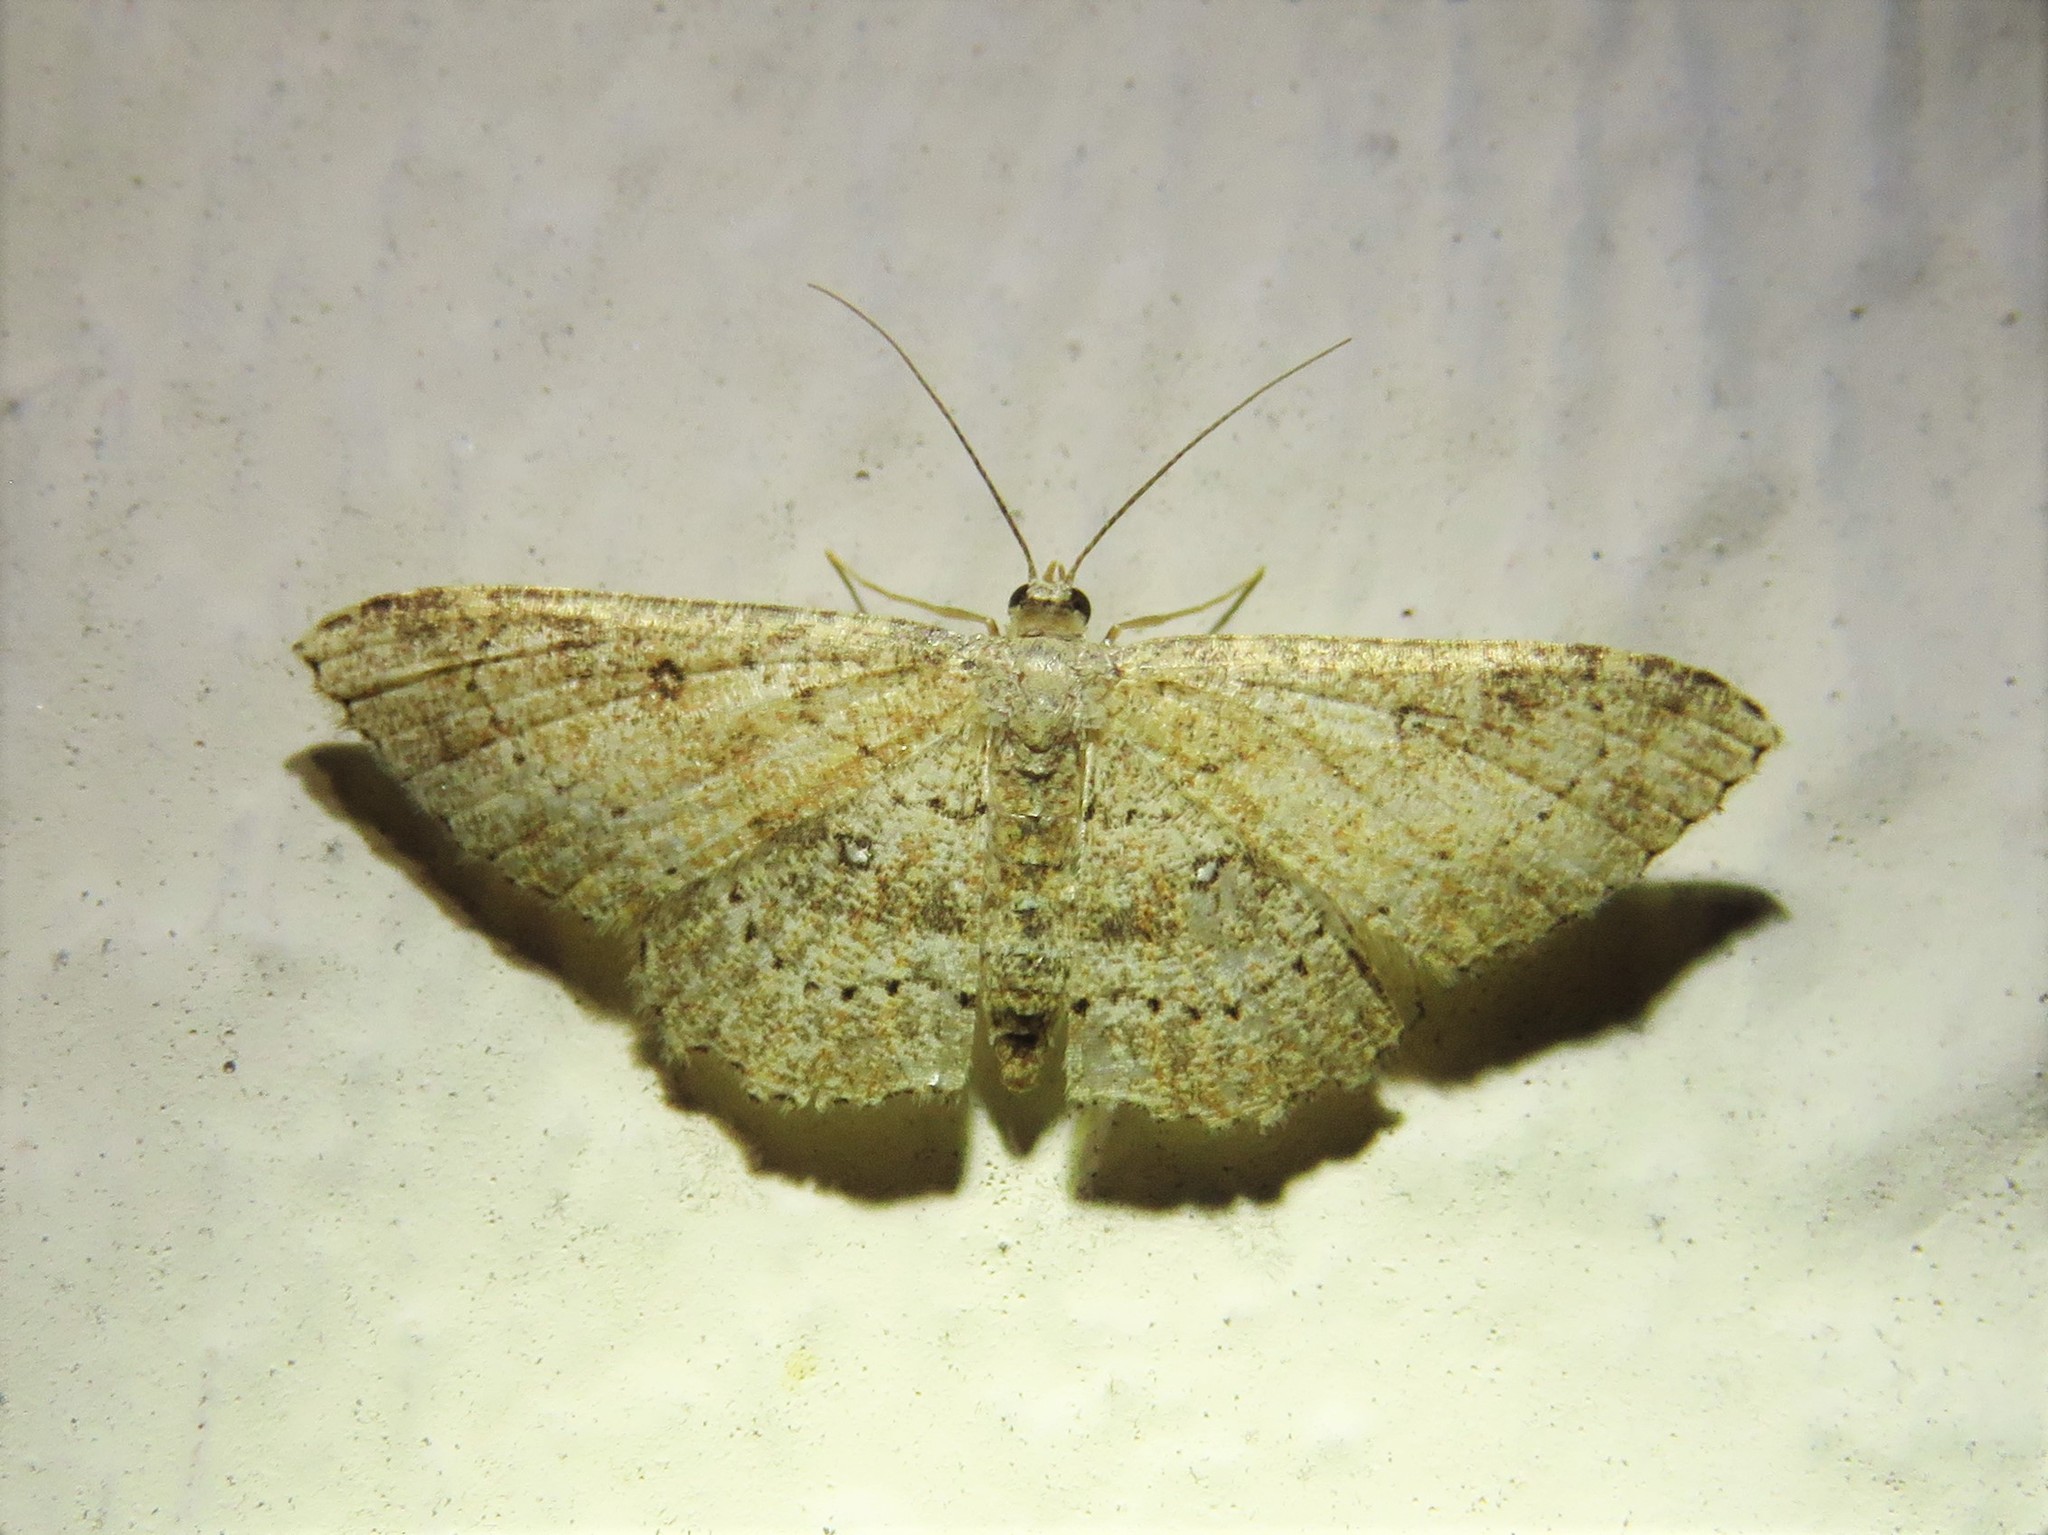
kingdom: Animalia
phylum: Arthropoda
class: Insecta
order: Lepidoptera
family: Geometridae
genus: Cyclophora
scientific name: Cyclophora nanaria
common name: Cankerworm
